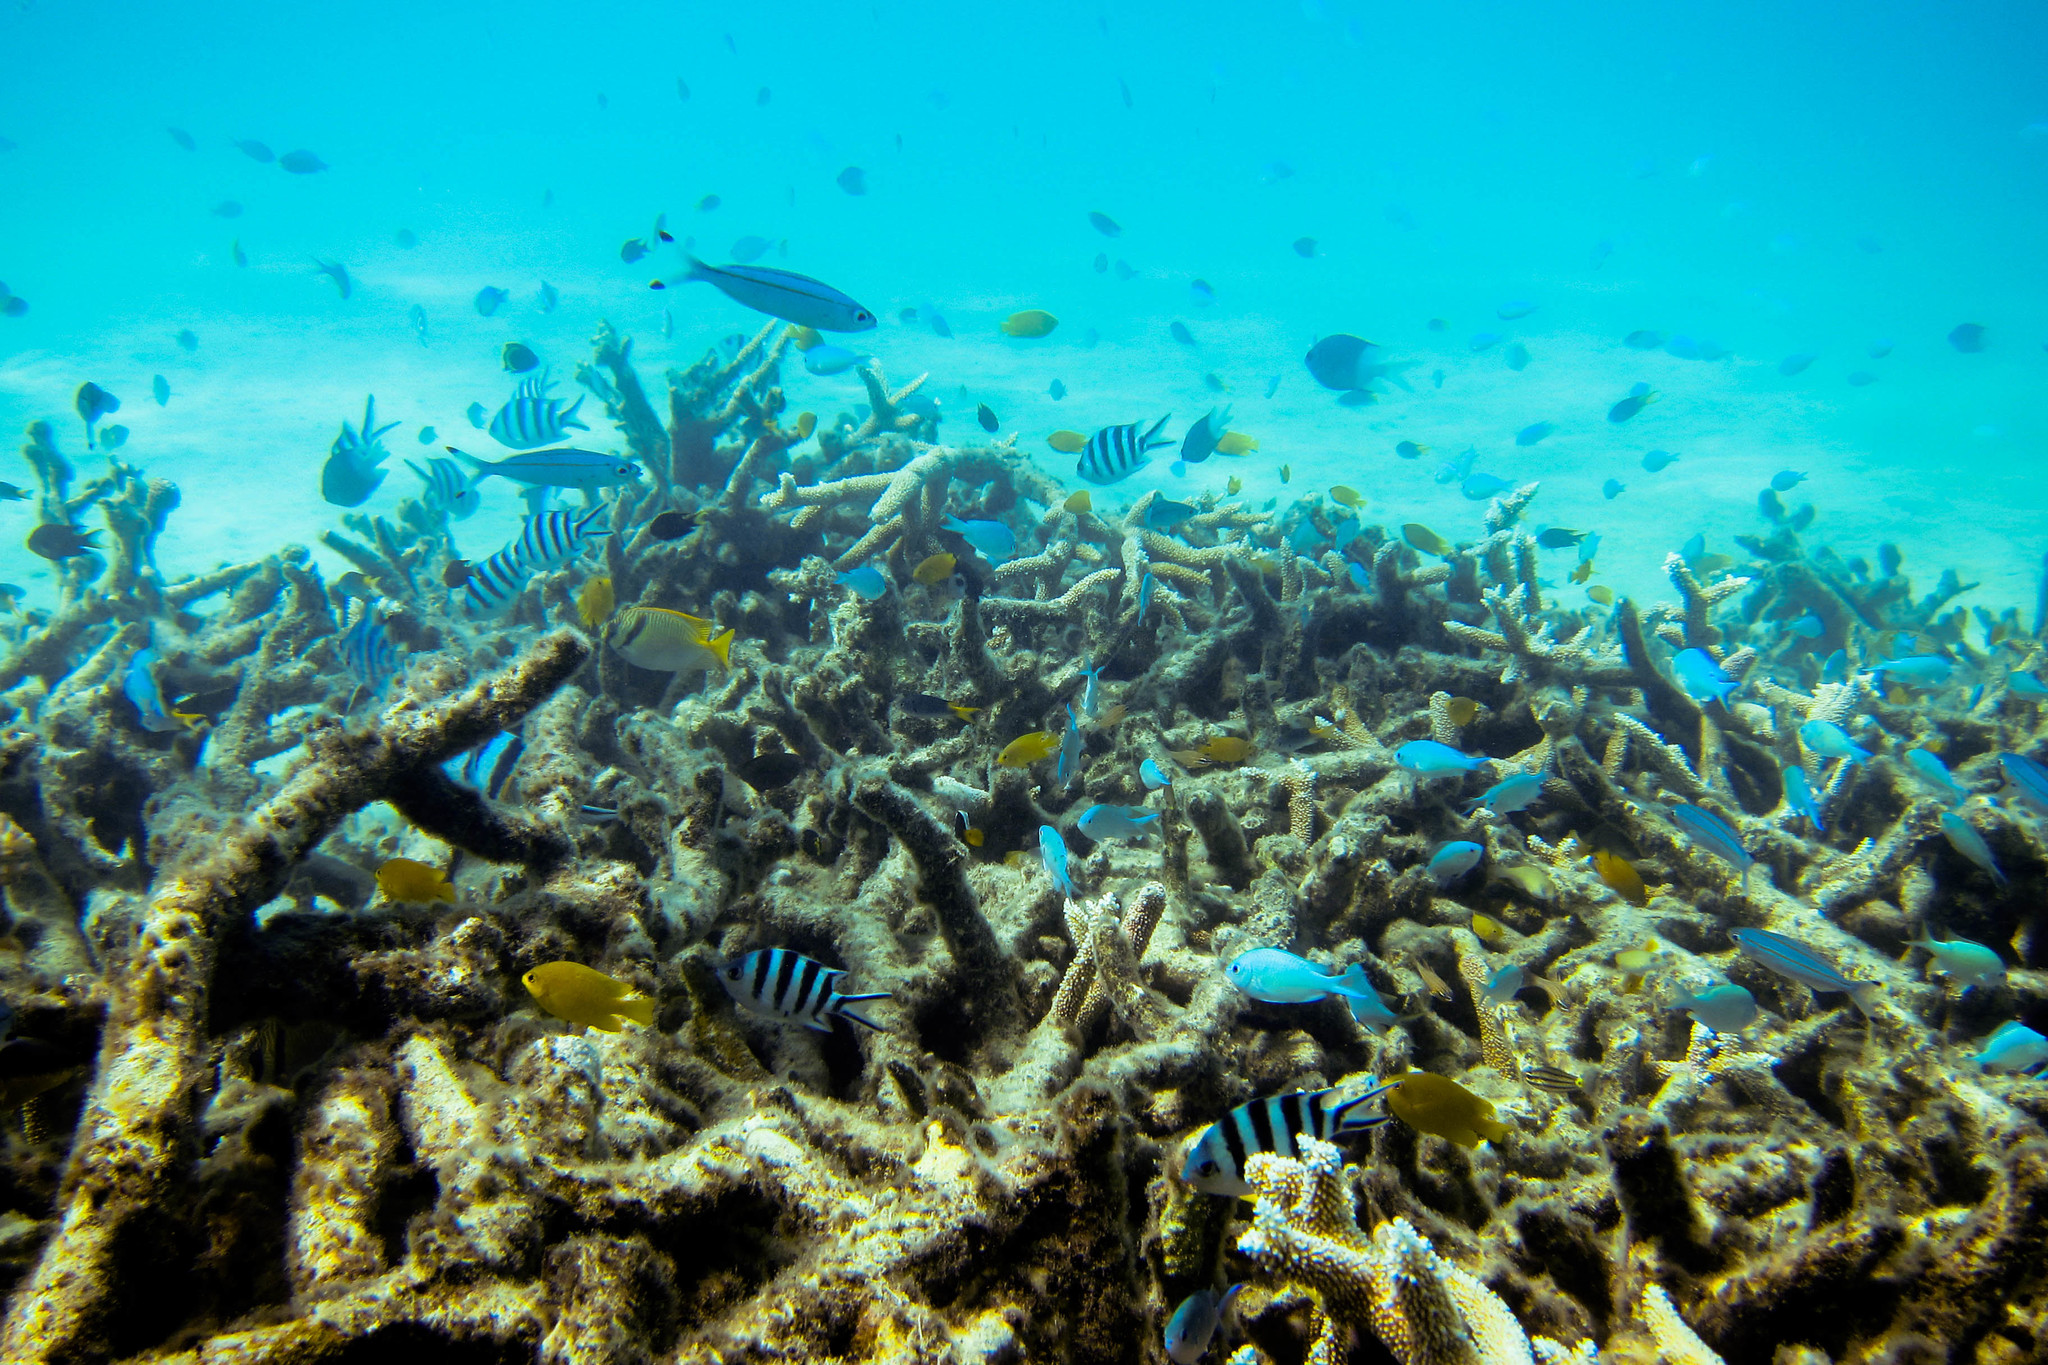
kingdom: Animalia
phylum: Chordata
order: Perciformes
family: Siganidae
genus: Siganus
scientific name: Siganus doliatus
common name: Barred spinefoot
